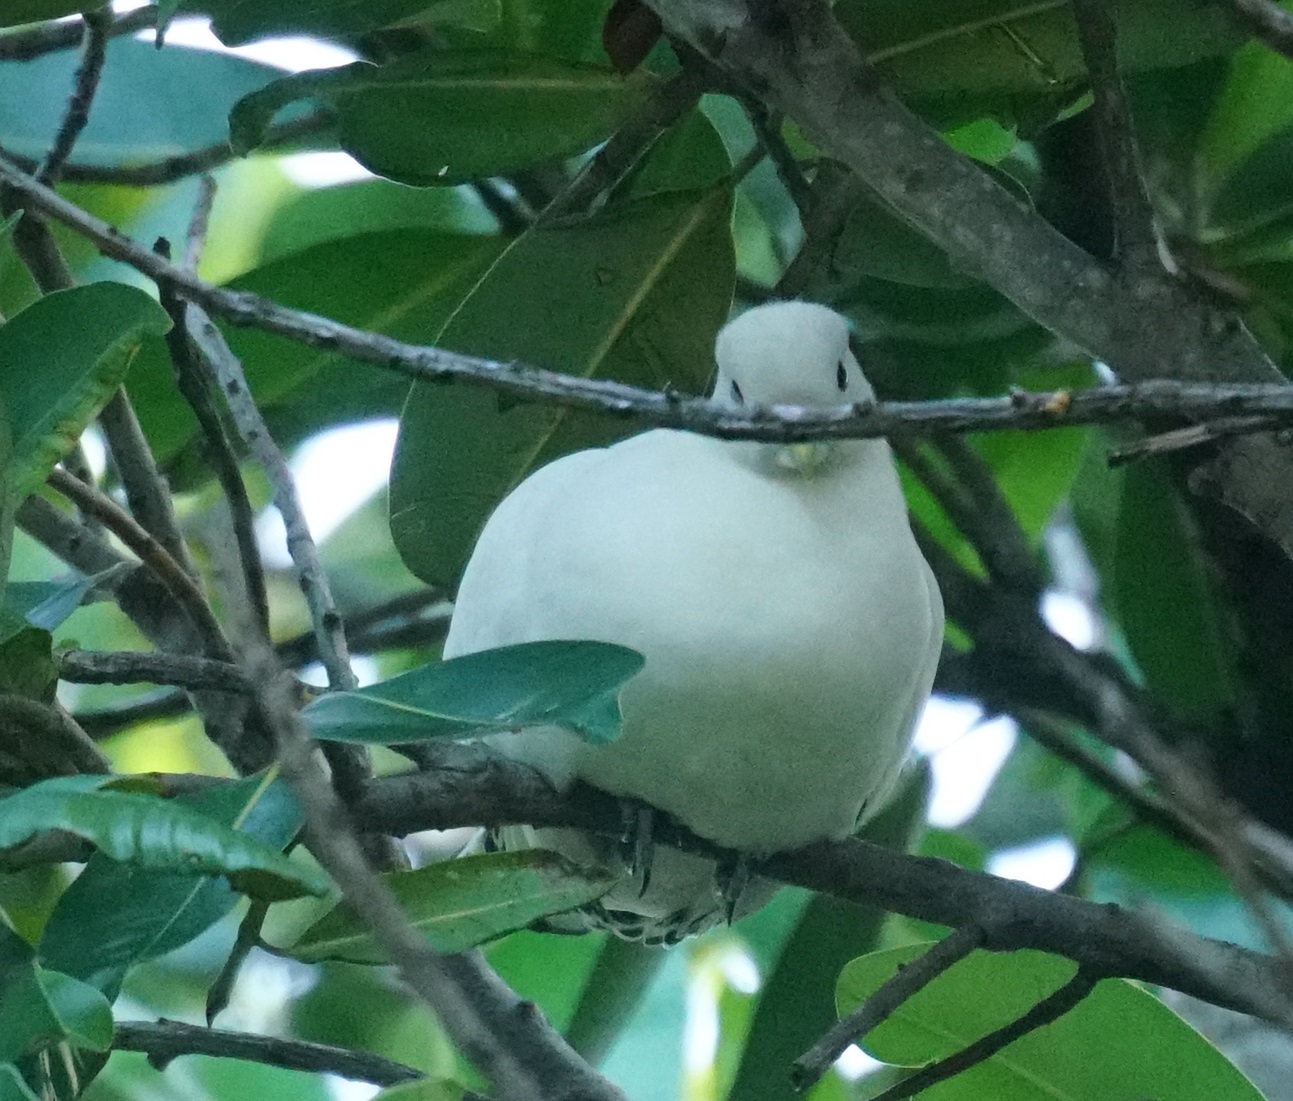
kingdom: Animalia
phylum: Chordata
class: Aves
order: Columbiformes
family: Columbidae
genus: Ducula
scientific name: Ducula spilorrhoa
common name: Torresian imperial pigeon
